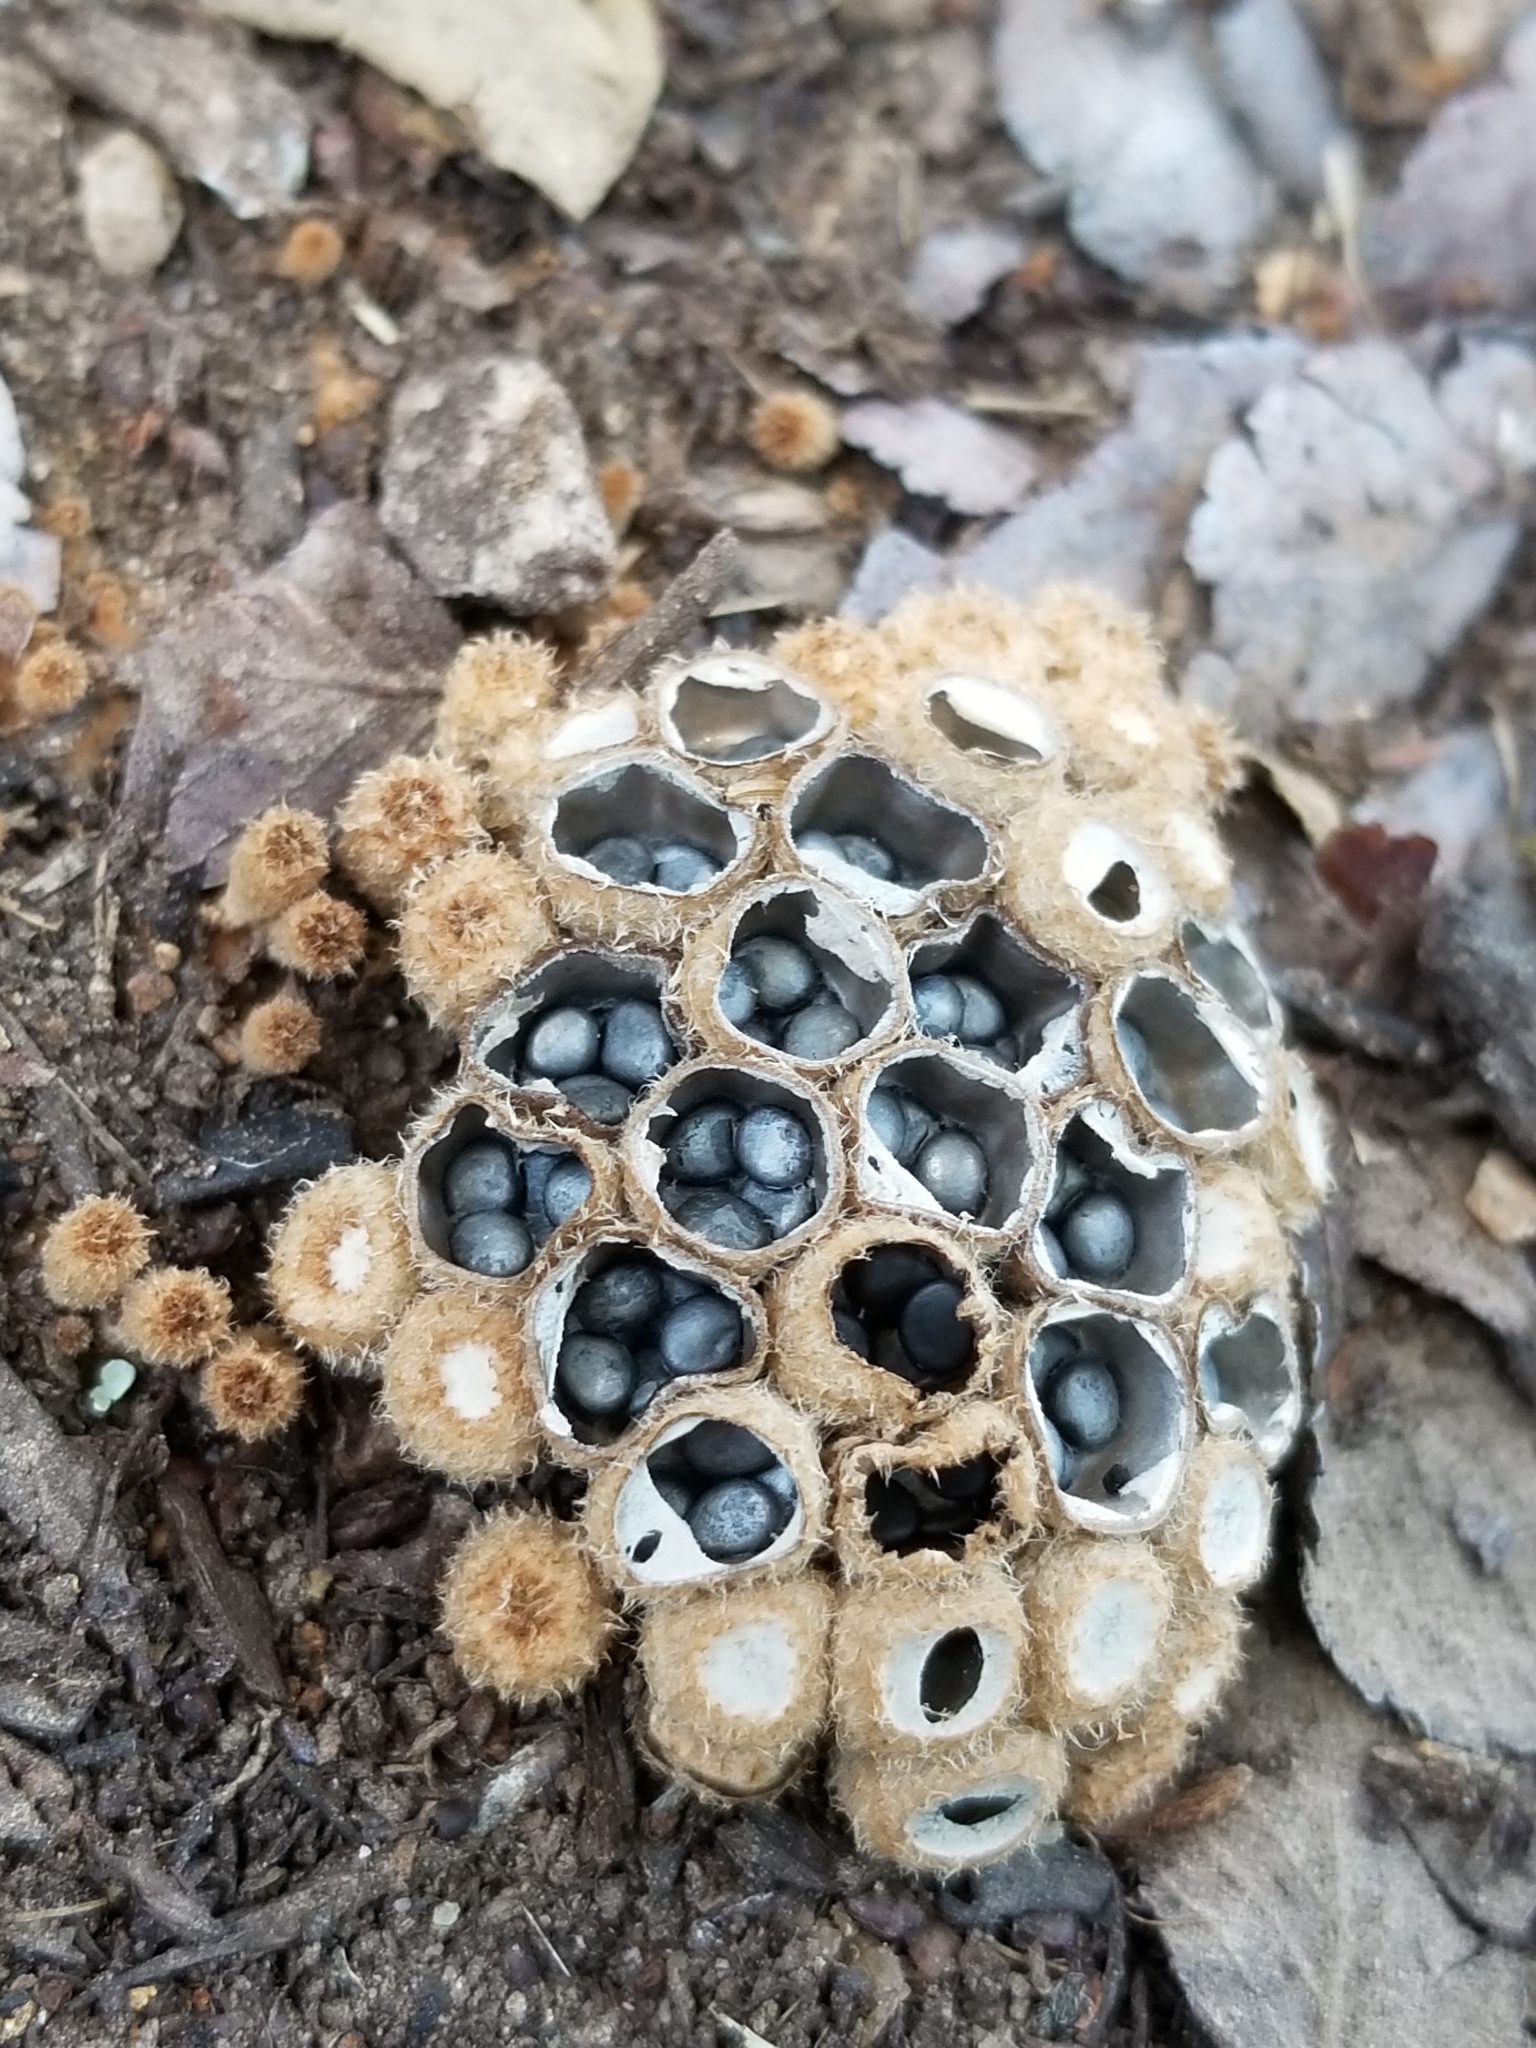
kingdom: Fungi
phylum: Basidiomycota
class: Agaricomycetes
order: Agaricales
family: Agaricaceae
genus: Cyathus
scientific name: Cyathus stercoreus
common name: Dung bird's nest
